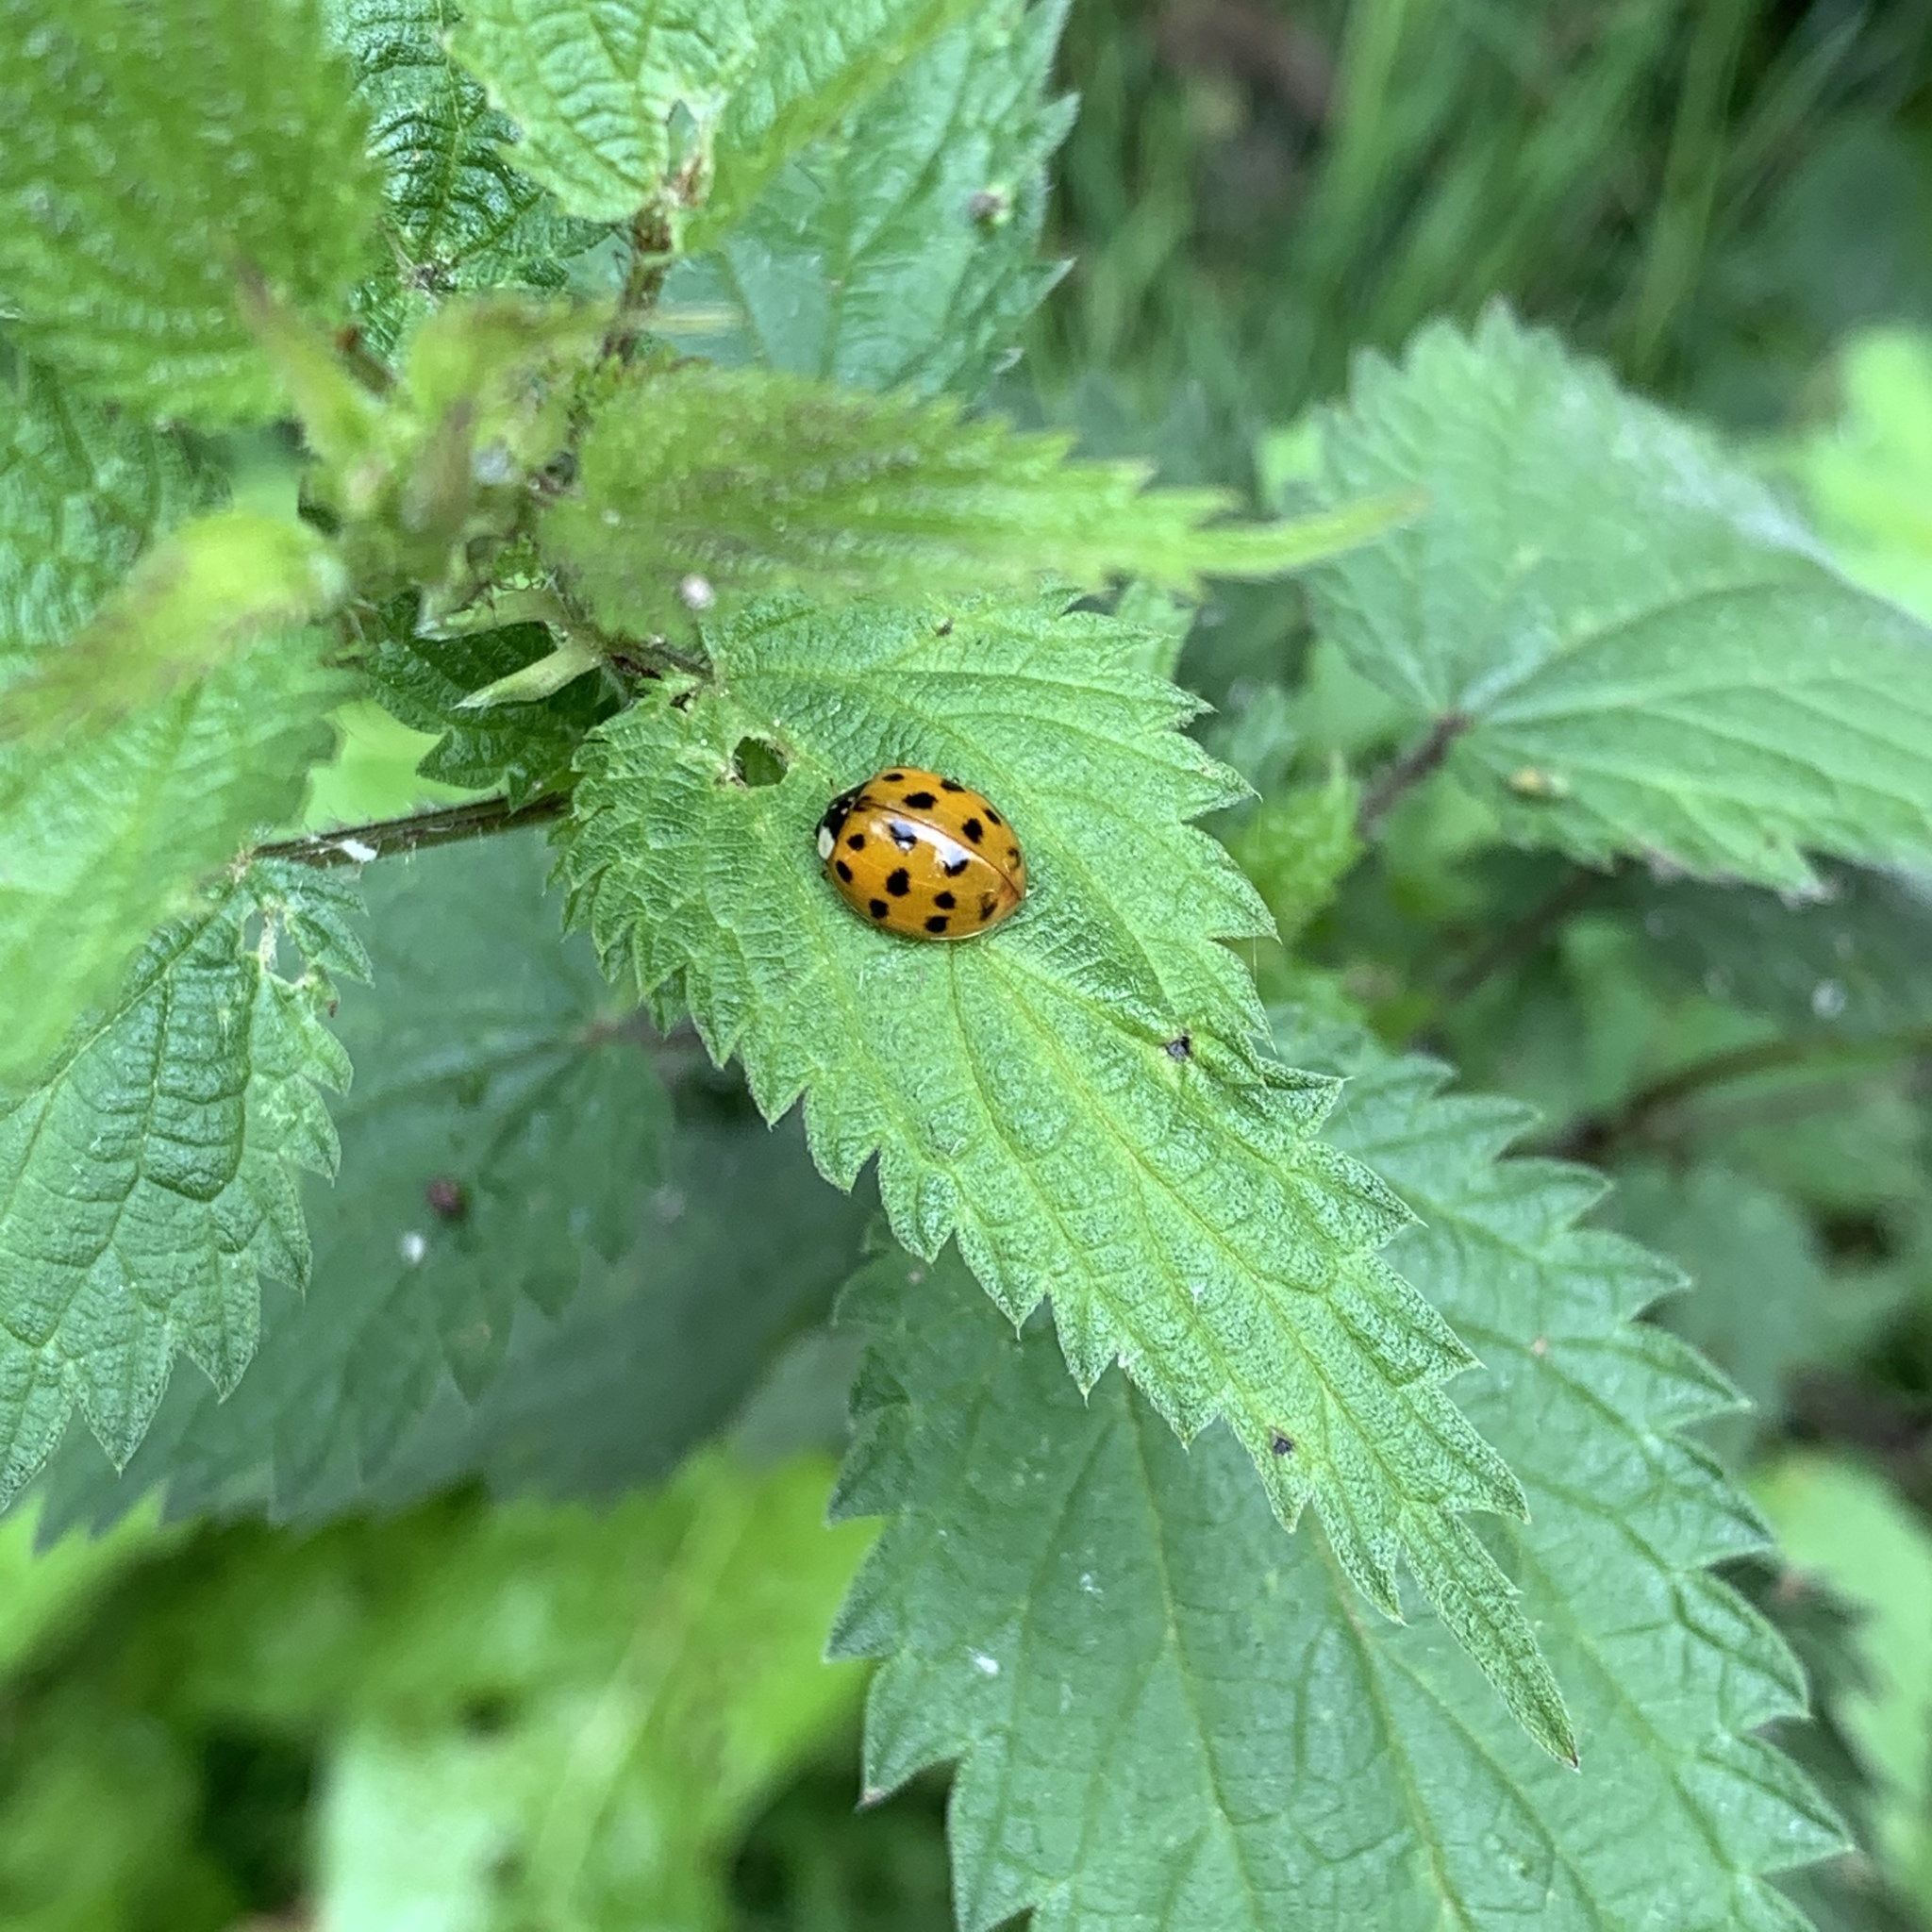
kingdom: Animalia
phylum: Arthropoda
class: Insecta
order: Coleoptera
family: Coccinellidae
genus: Harmonia
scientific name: Harmonia axyridis
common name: Harlequin ladybird
